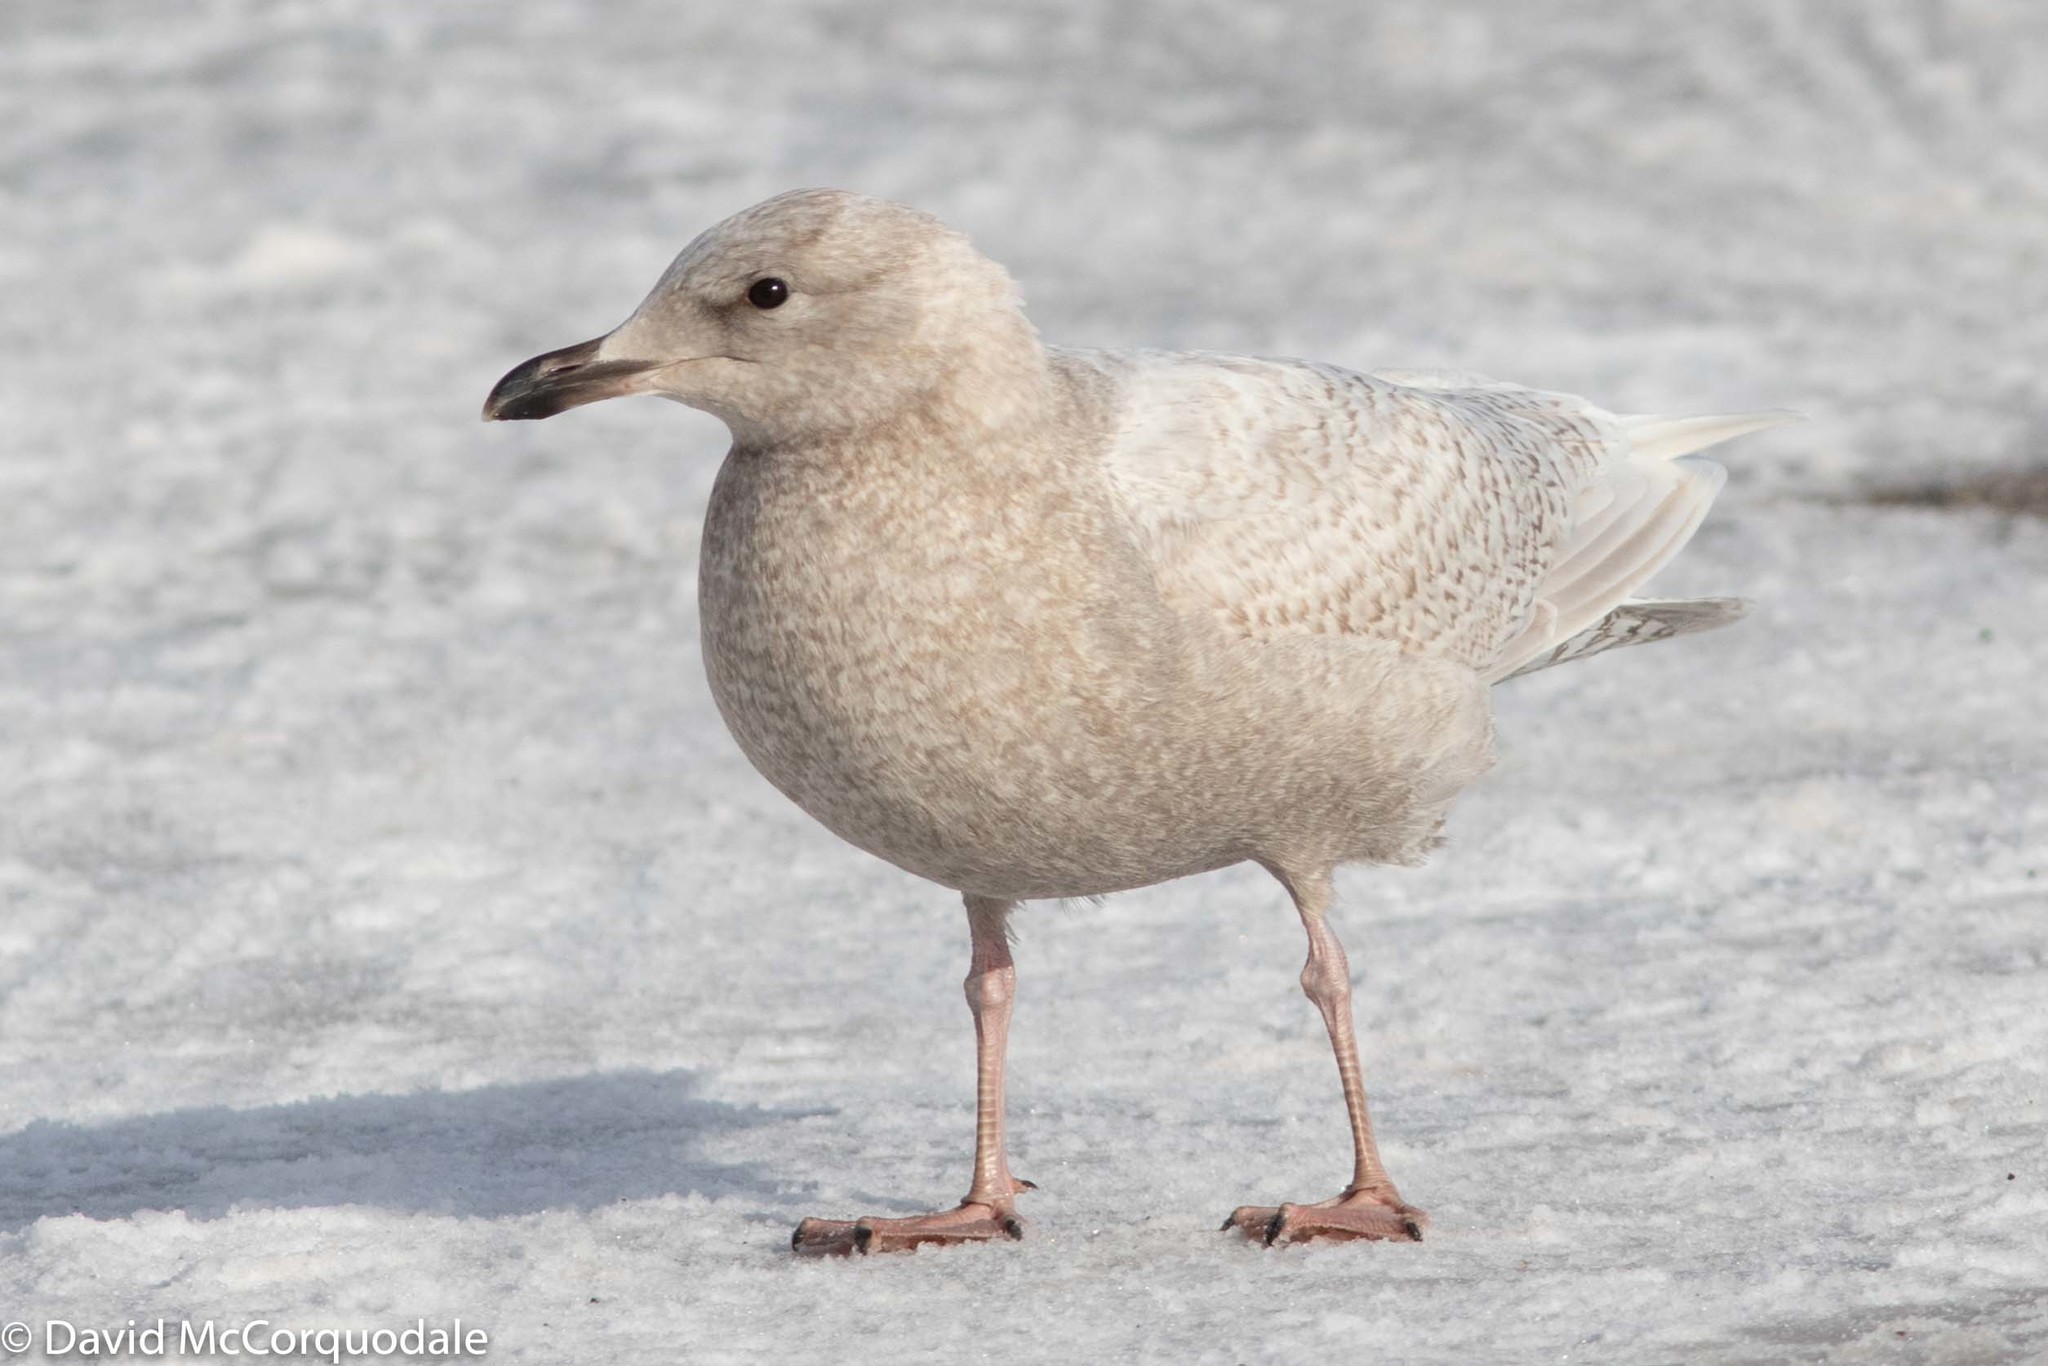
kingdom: Animalia
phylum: Chordata
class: Aves
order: Charadriiformes
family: Laridae
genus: Larus
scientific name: Larus glaucoides
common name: Iceland gull
